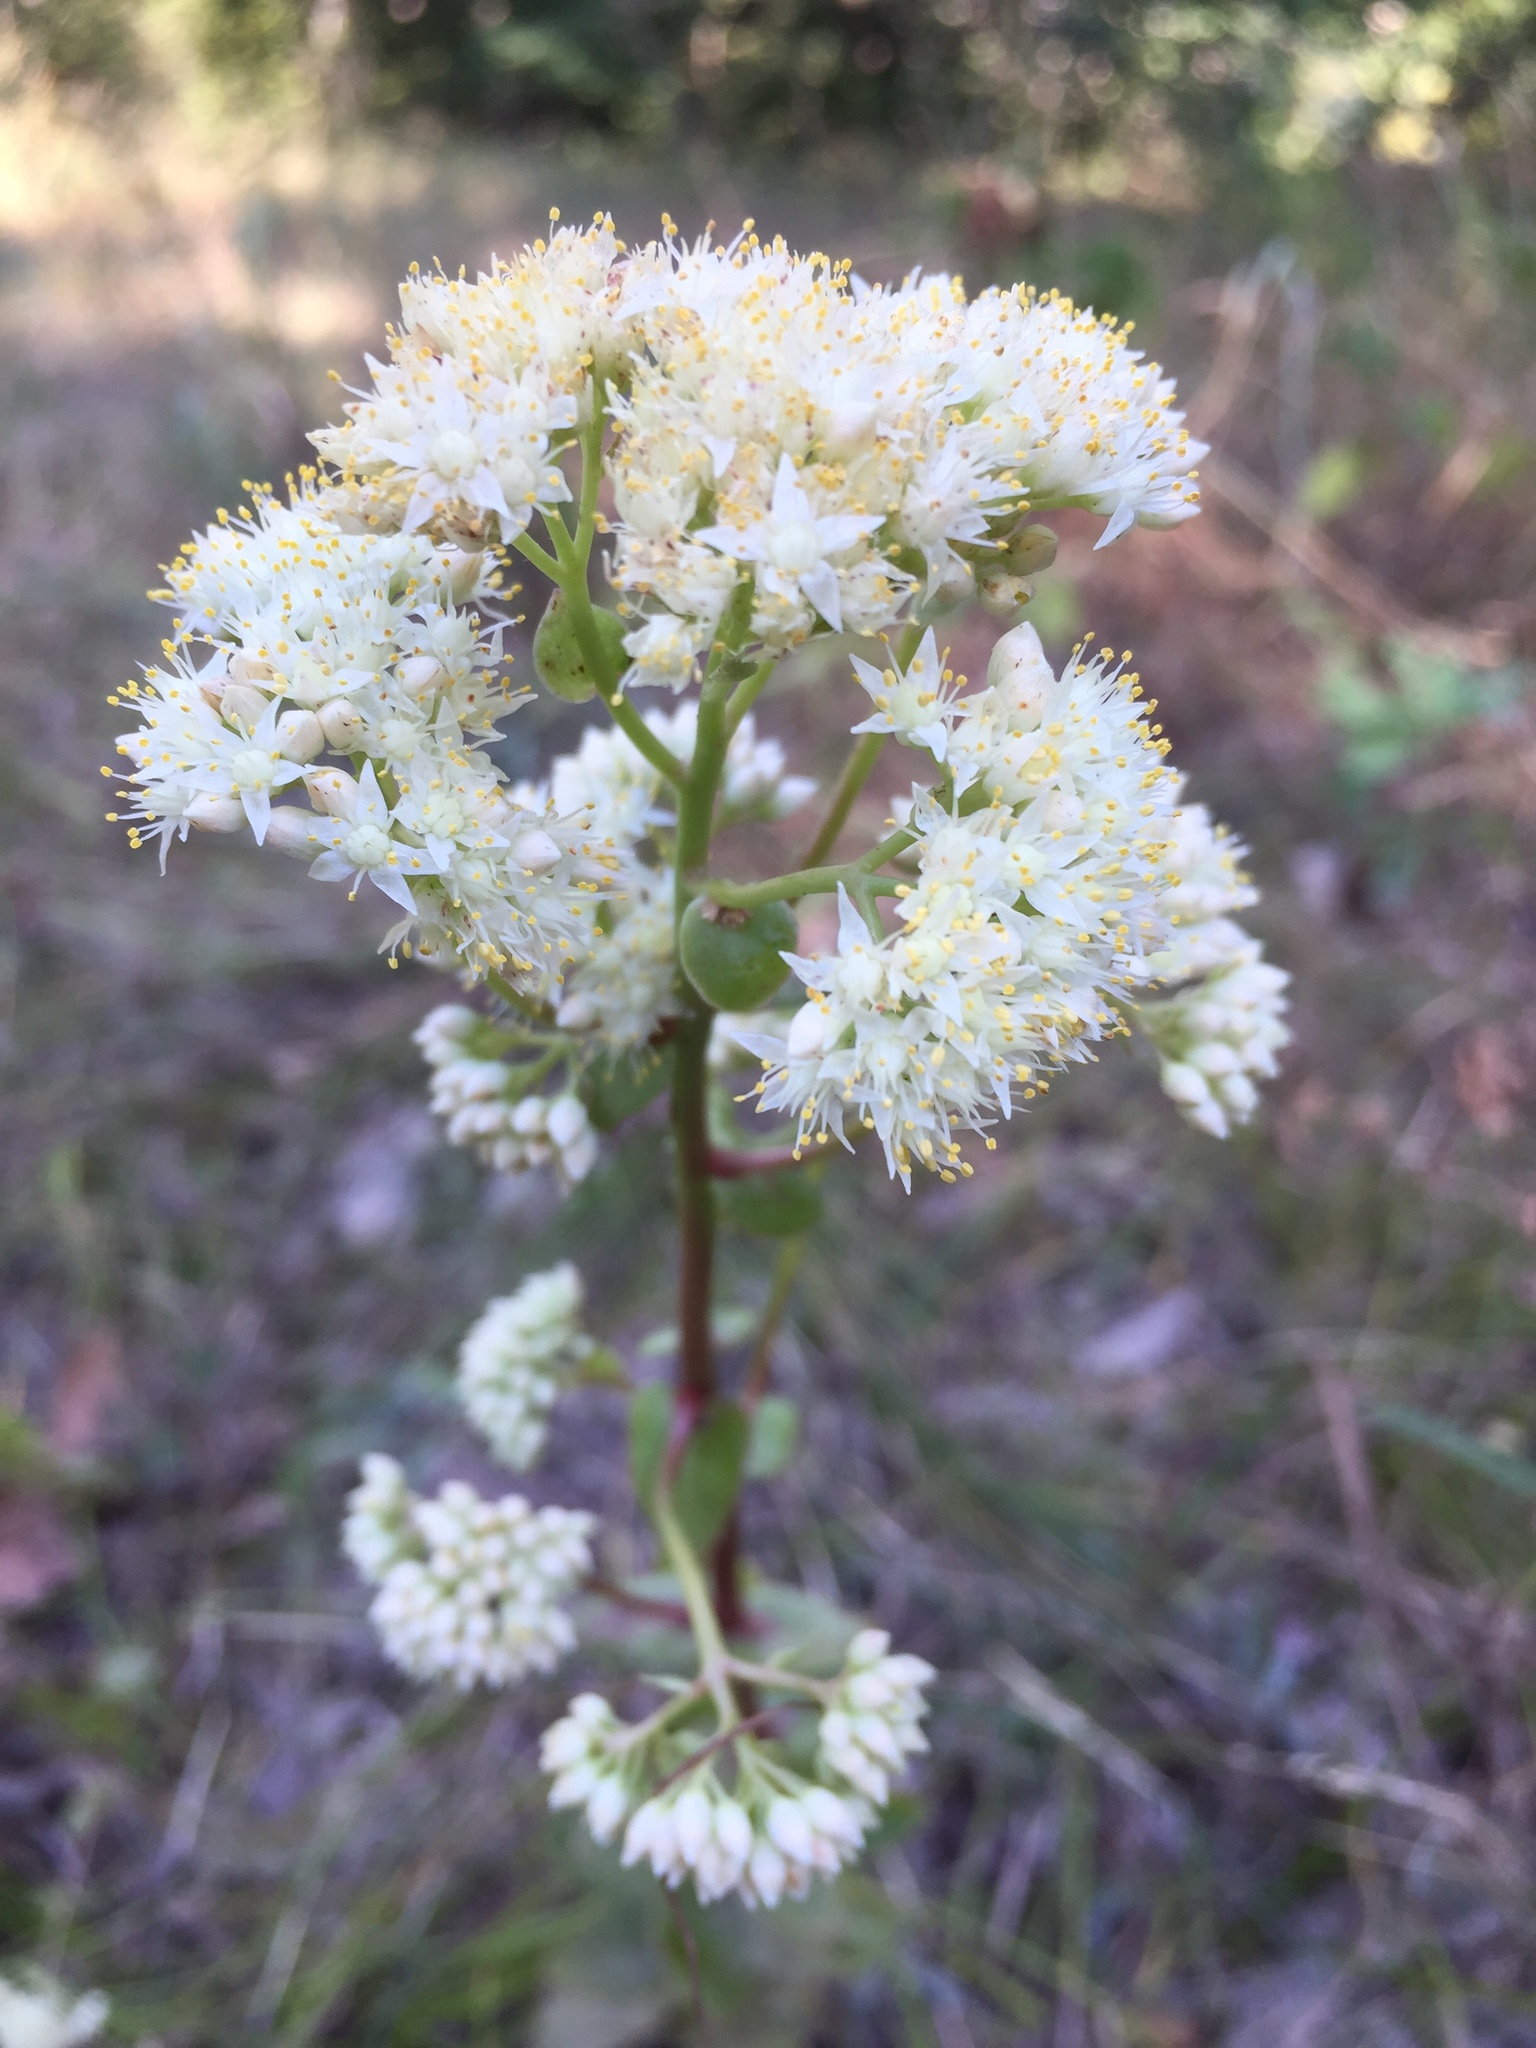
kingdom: Plantae
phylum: Tracheophyta
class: Magnoliopsida
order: Saxifragales
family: Crassulaceae
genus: Hylotelephium
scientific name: Hylotelephium maximum
